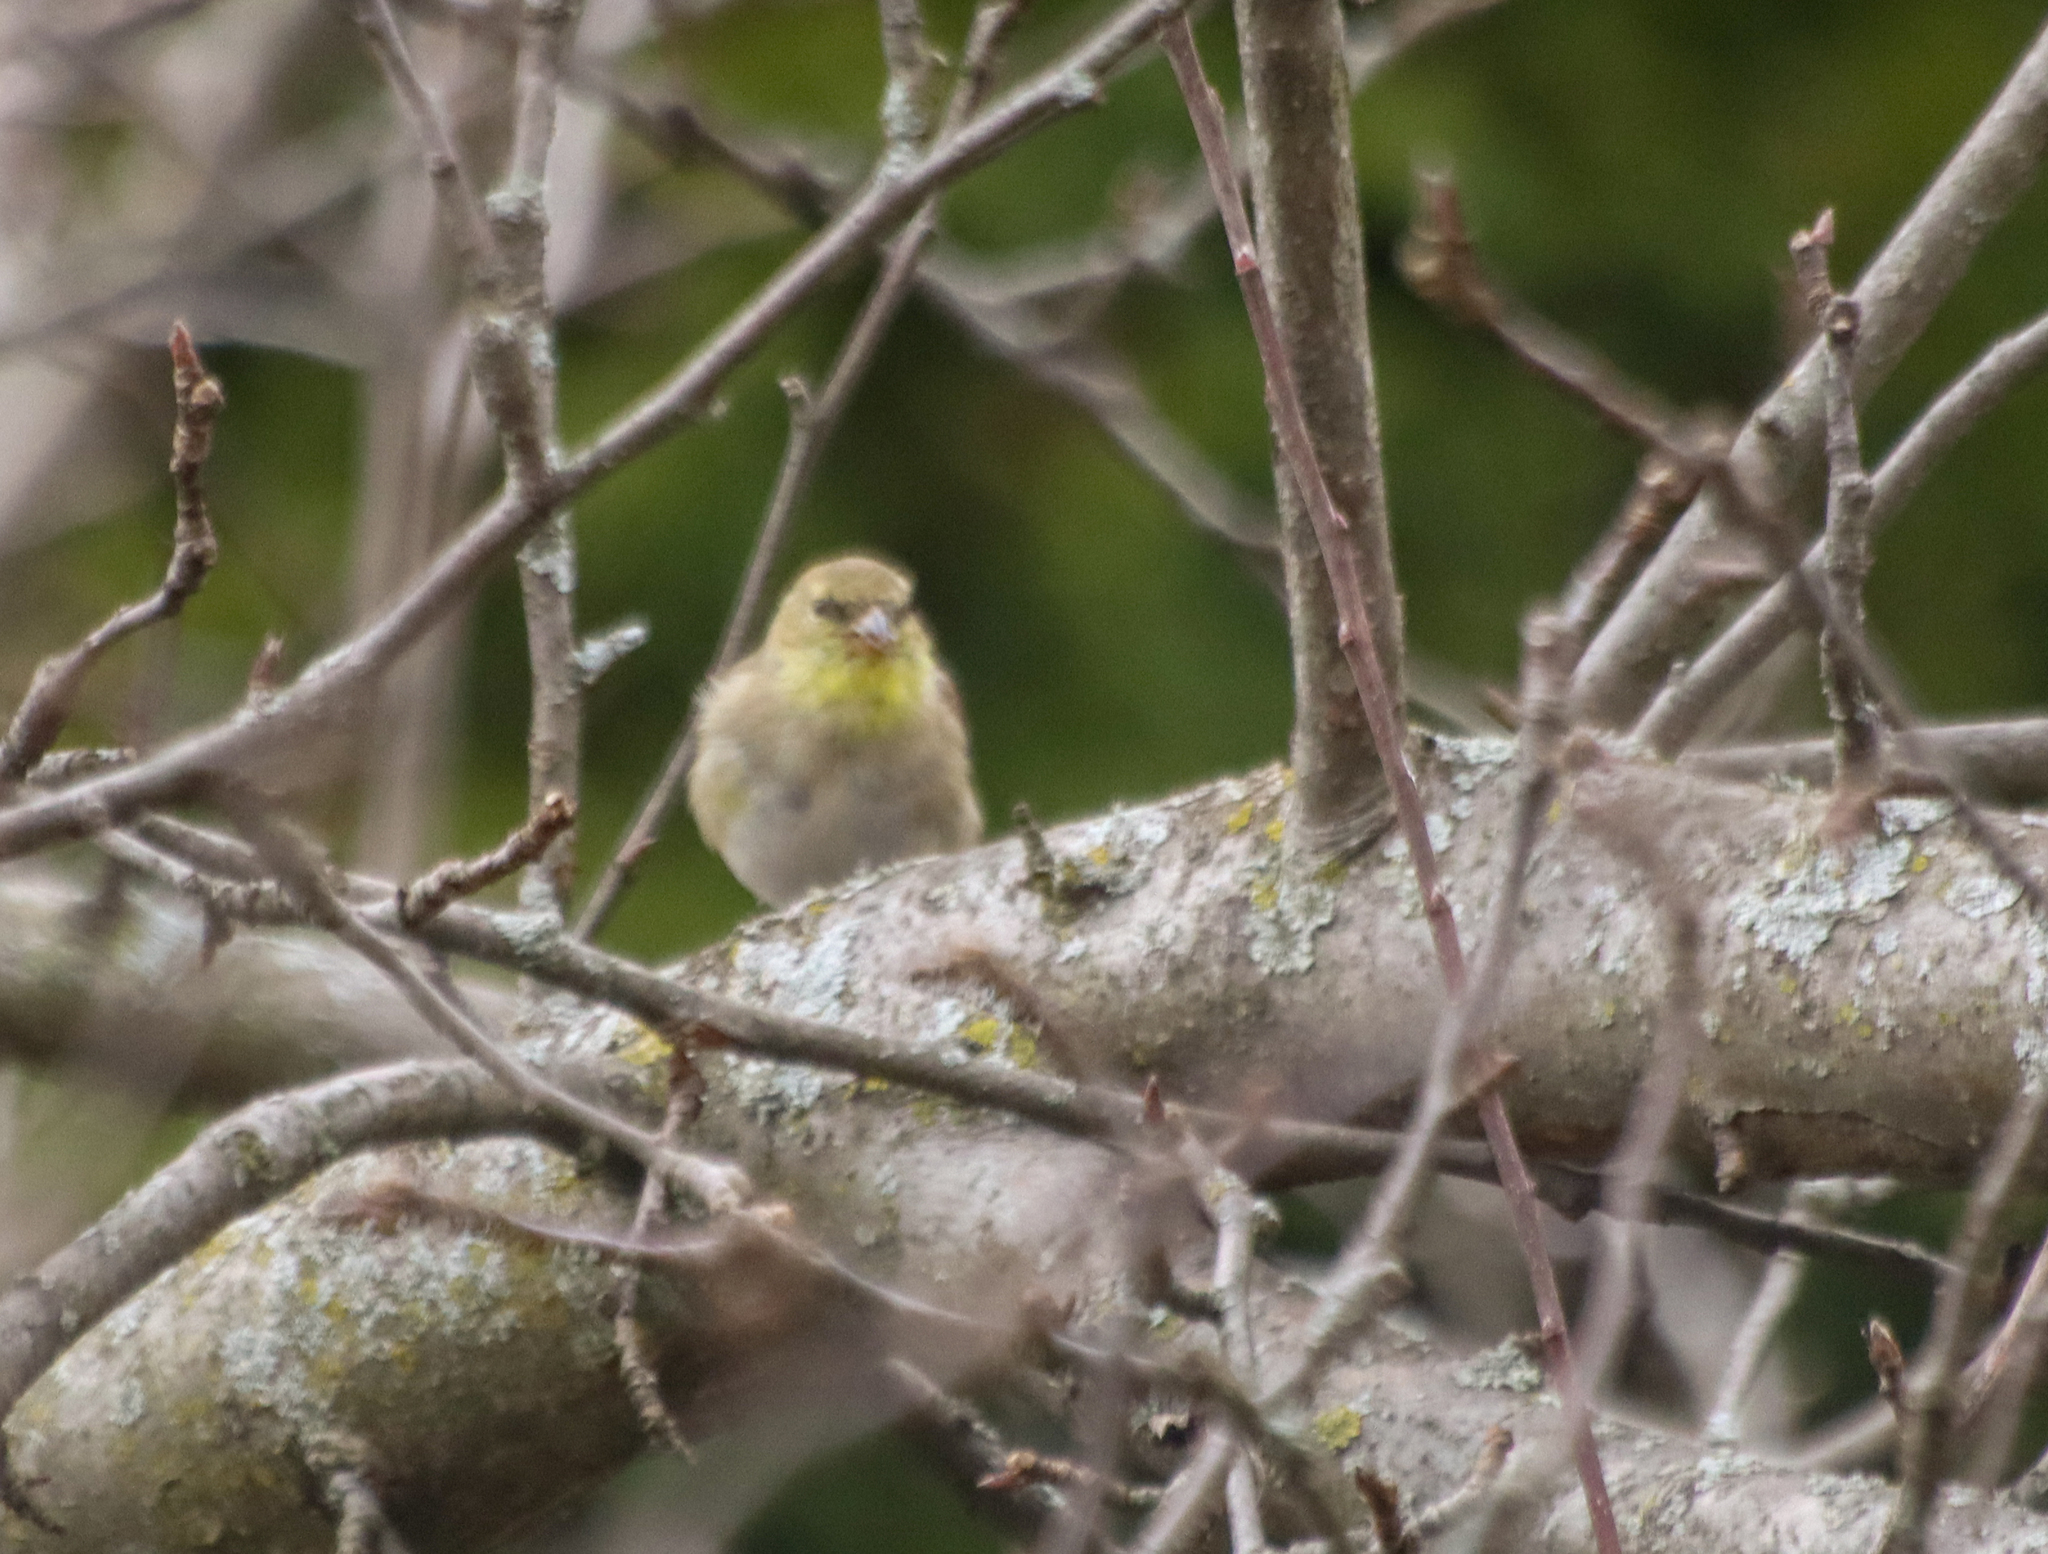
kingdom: Animalia
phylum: Chordata
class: Aves
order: Passeriformes
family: Fringillidae
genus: Spinus
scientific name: Spinus tristis
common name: American goldfinch
